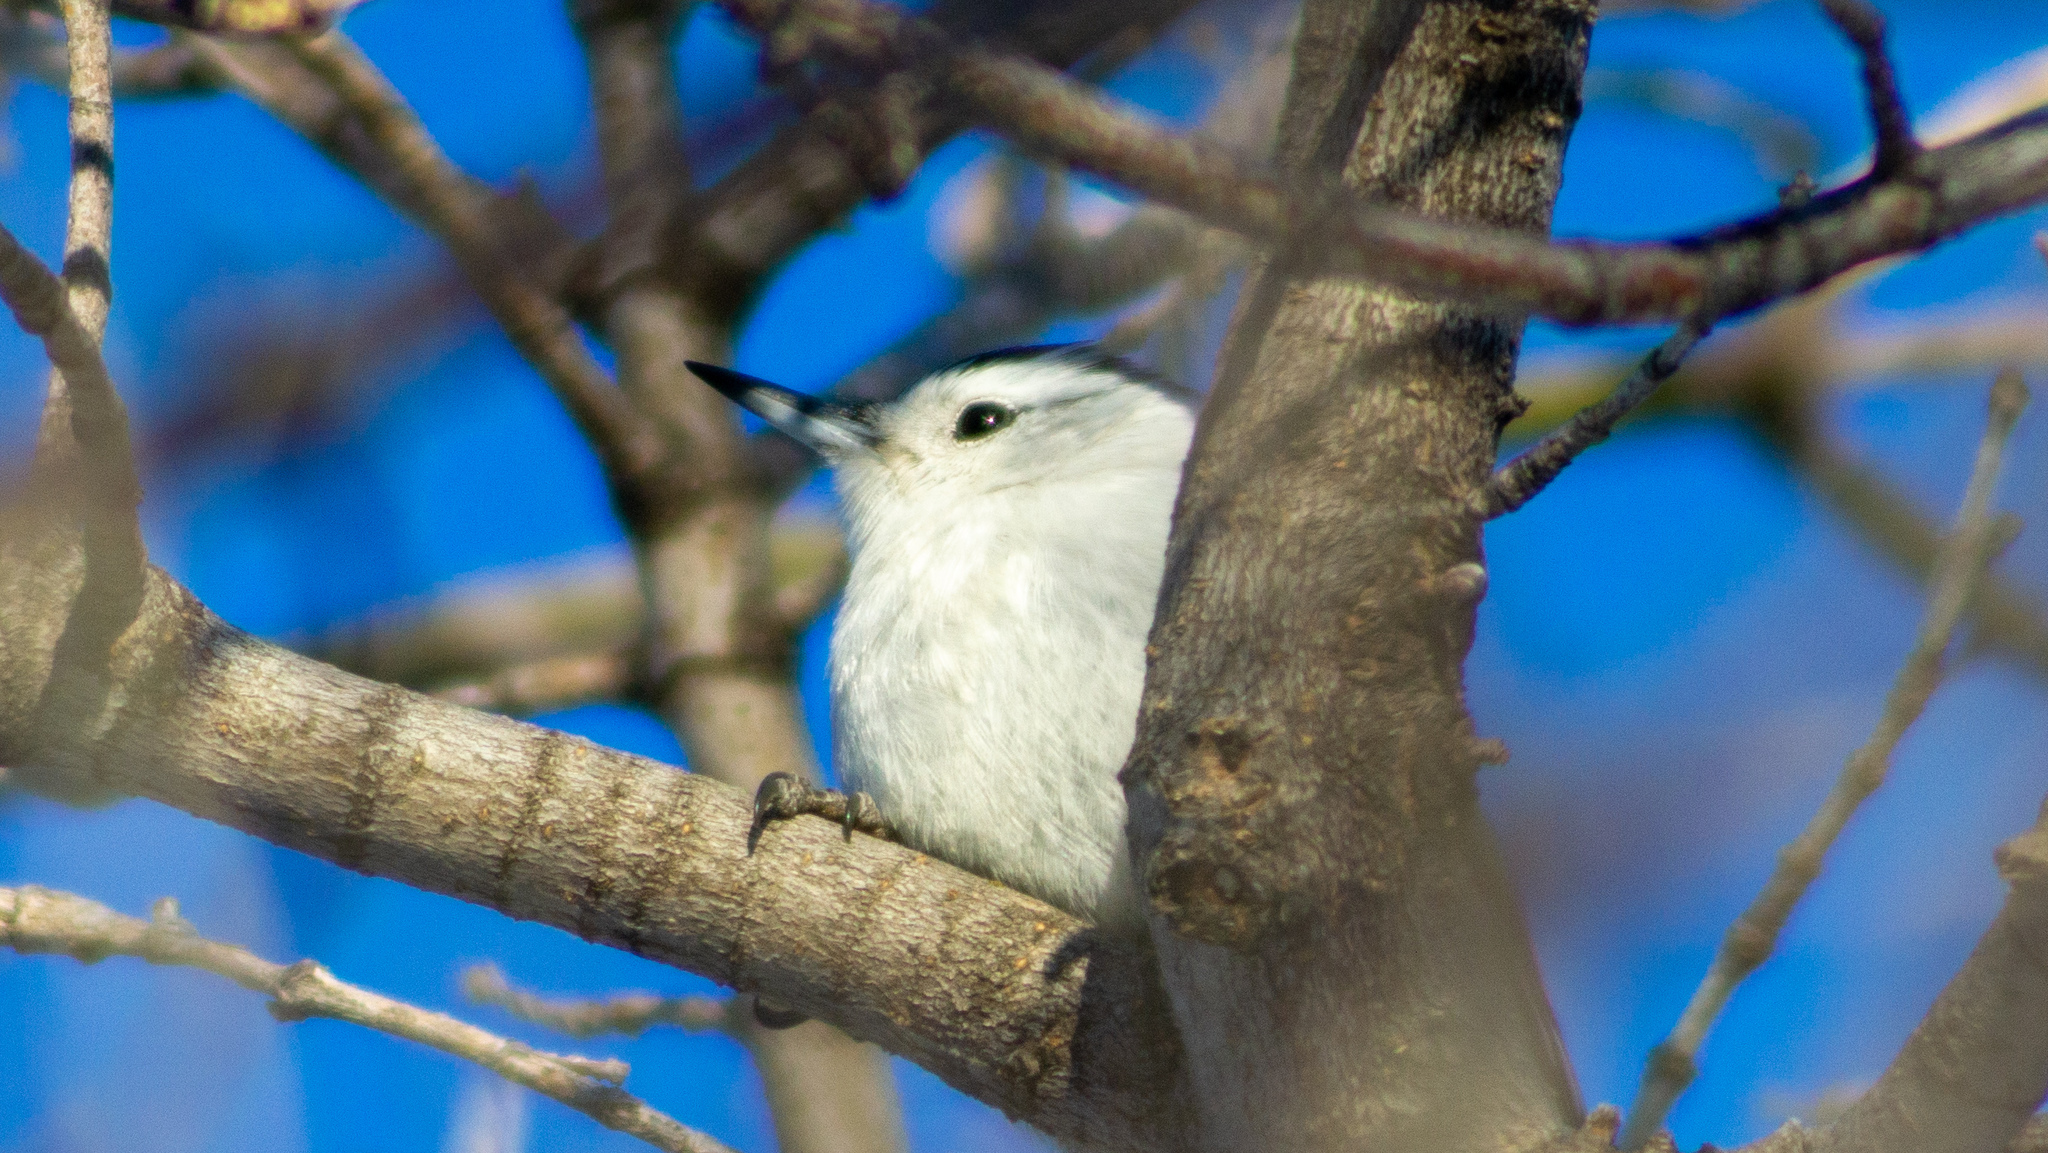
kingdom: Animalia
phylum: Chordata
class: Aves
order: Passeriformes
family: Sittidae
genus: Sitta
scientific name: Sitta carolinensis
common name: White-breasted nuthatch
